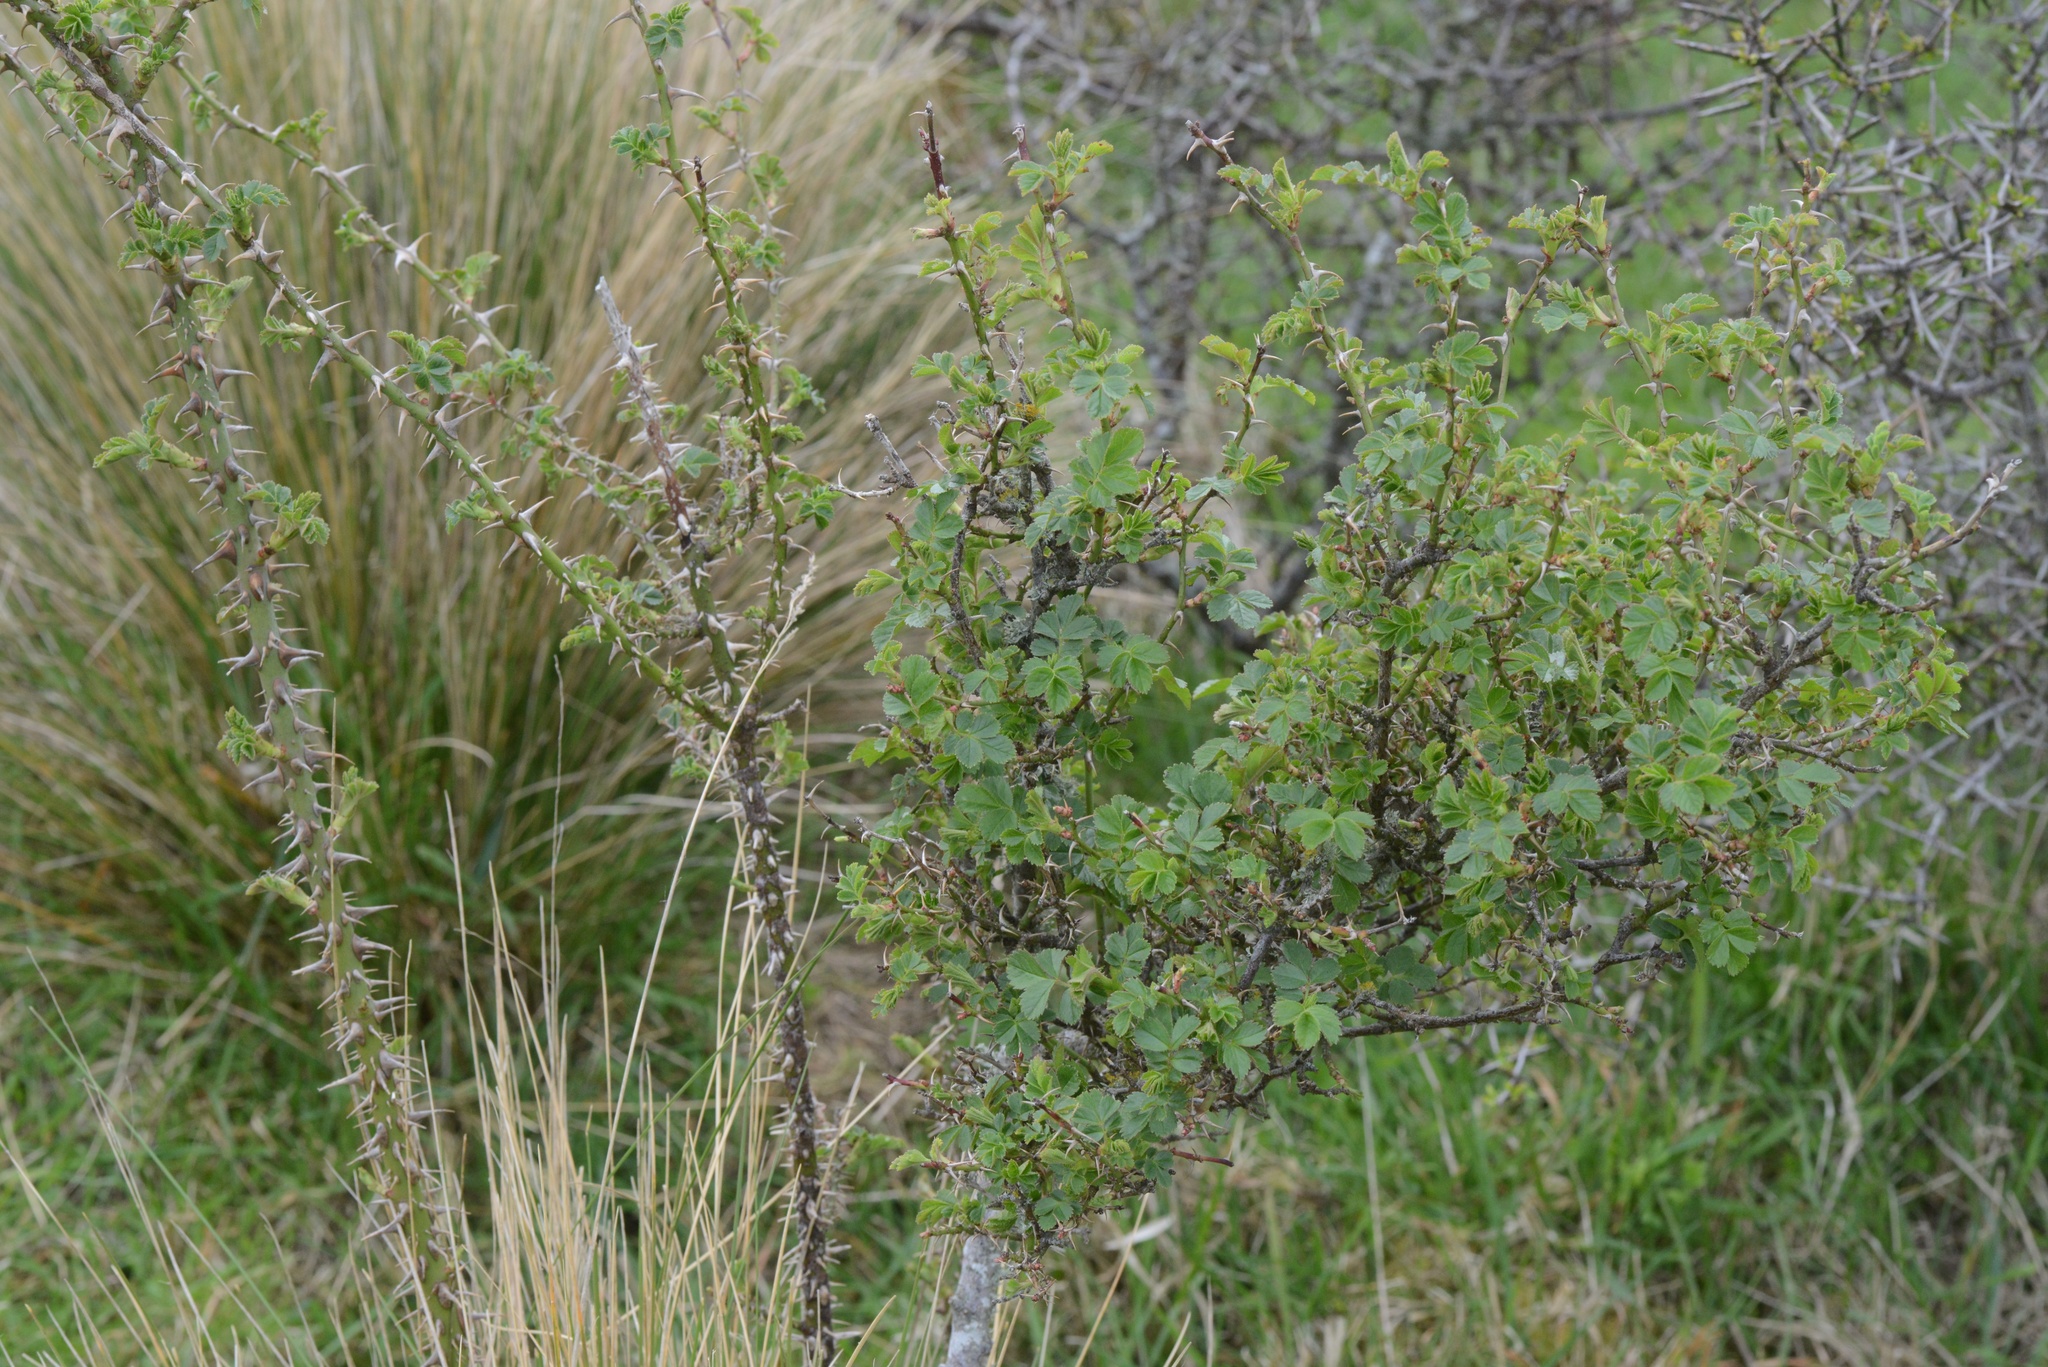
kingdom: Plantae
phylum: Tracheophyta
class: Magnoliopsida
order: Rosales
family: Rosaceae
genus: Rosa
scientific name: Rosa rubiginosa
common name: Sweet-briar
